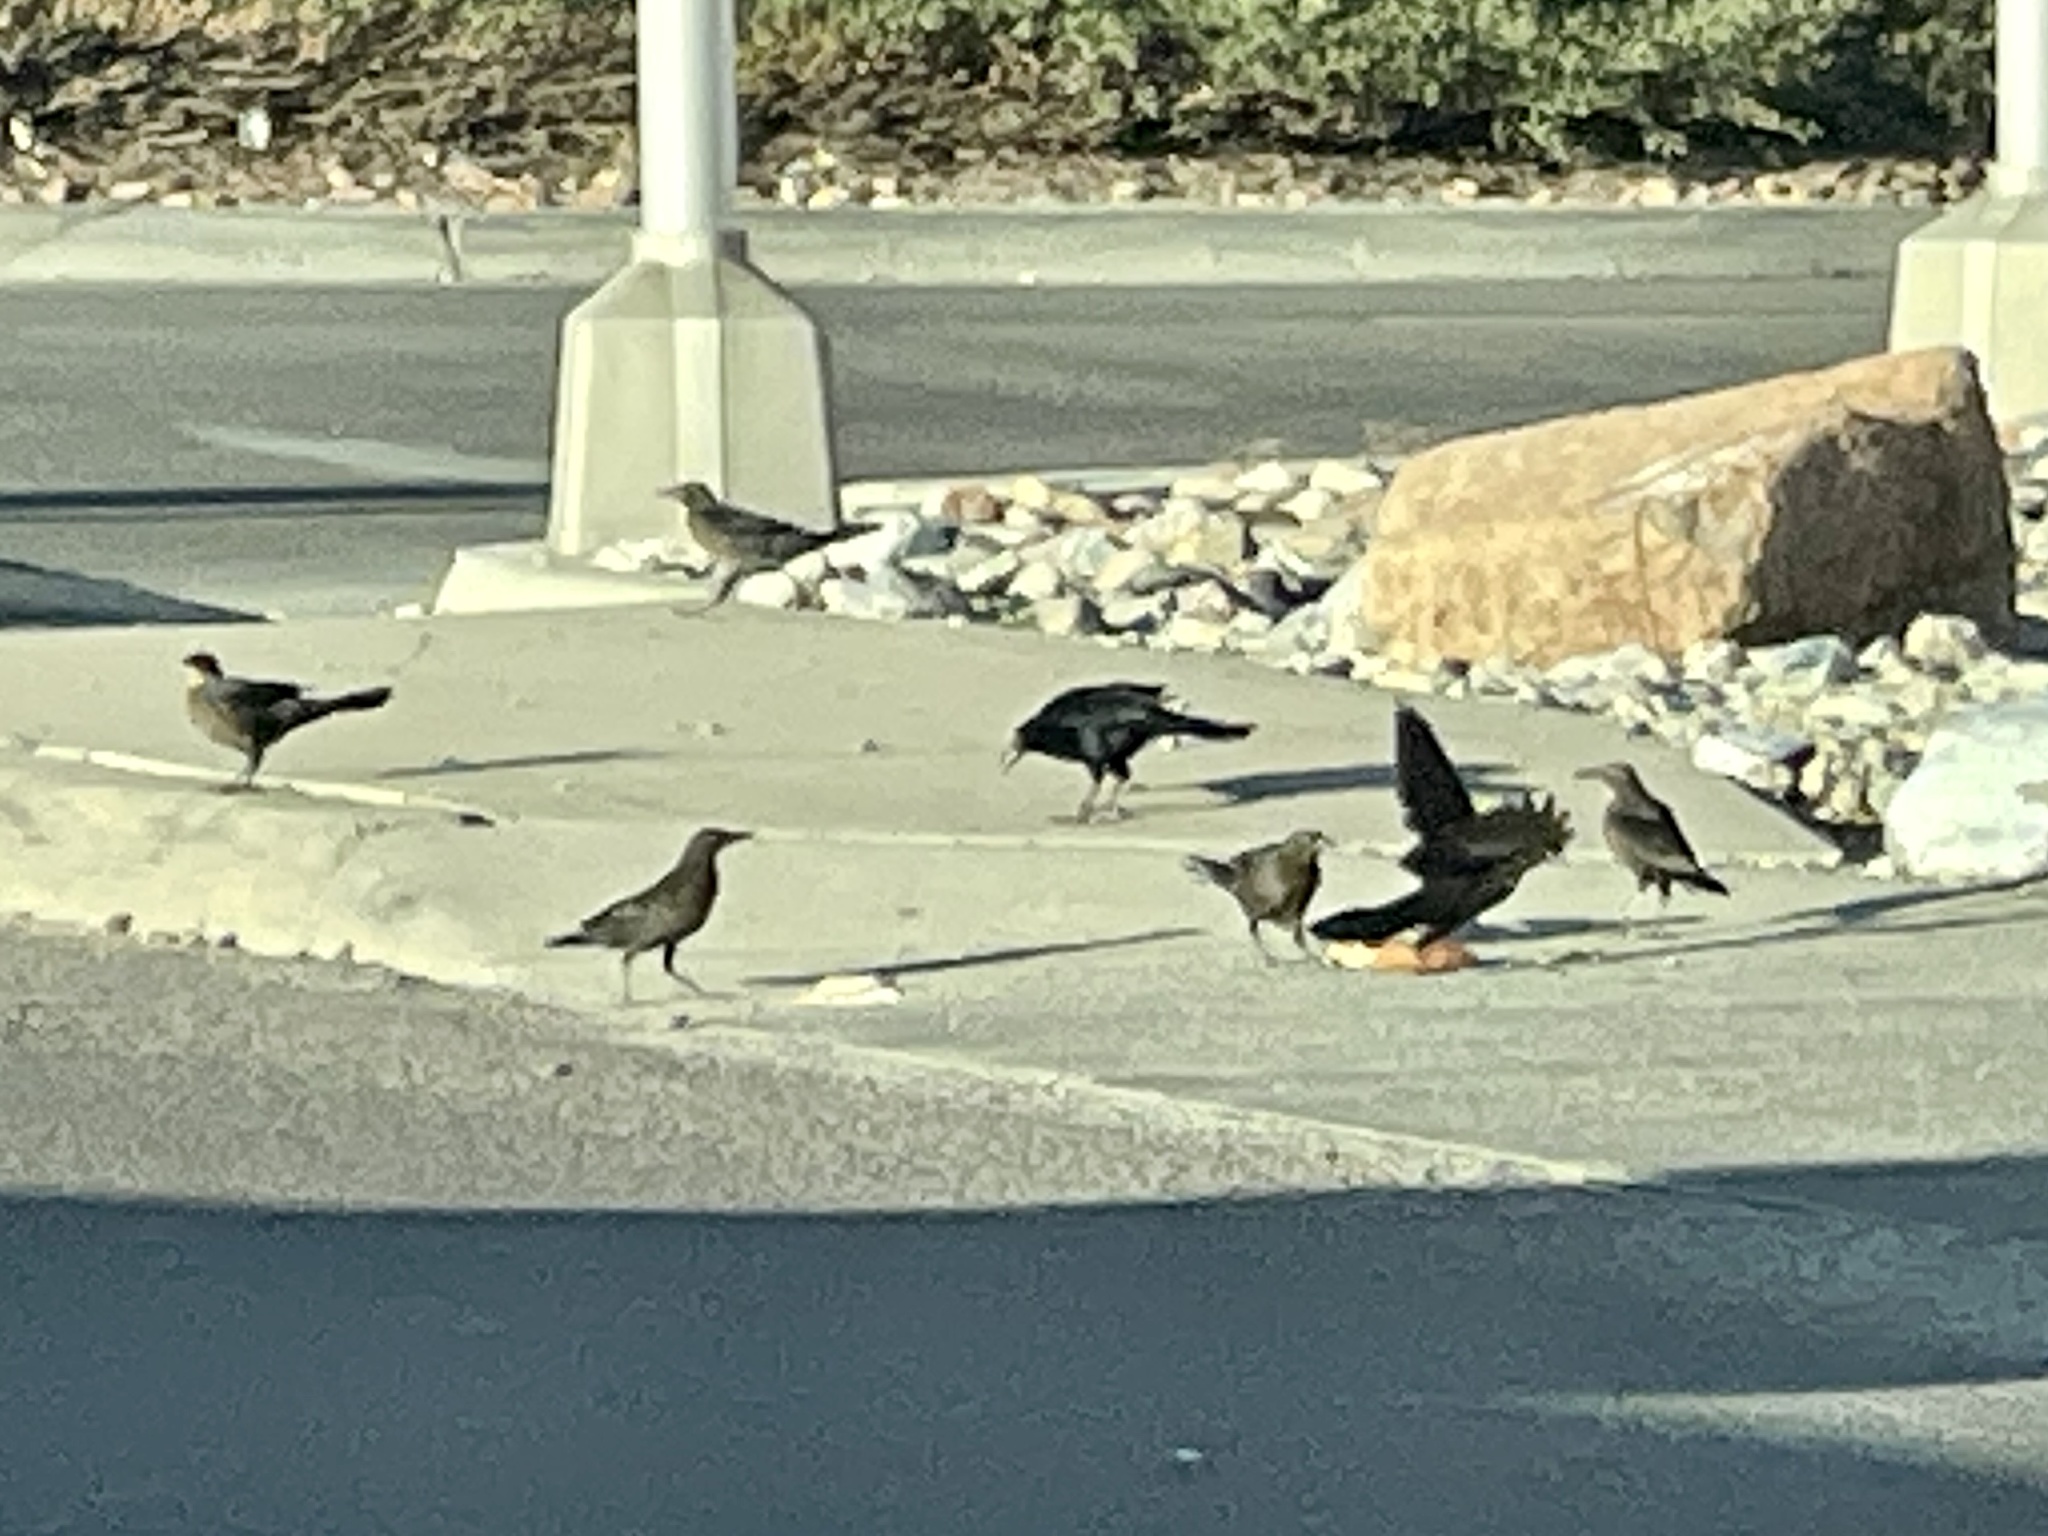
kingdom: Animalia
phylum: Chordata
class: Aves
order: Passeriformes
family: Icteridae
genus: Quiscalus
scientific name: Quiscalus mexicanus
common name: Great-tailed grackle
